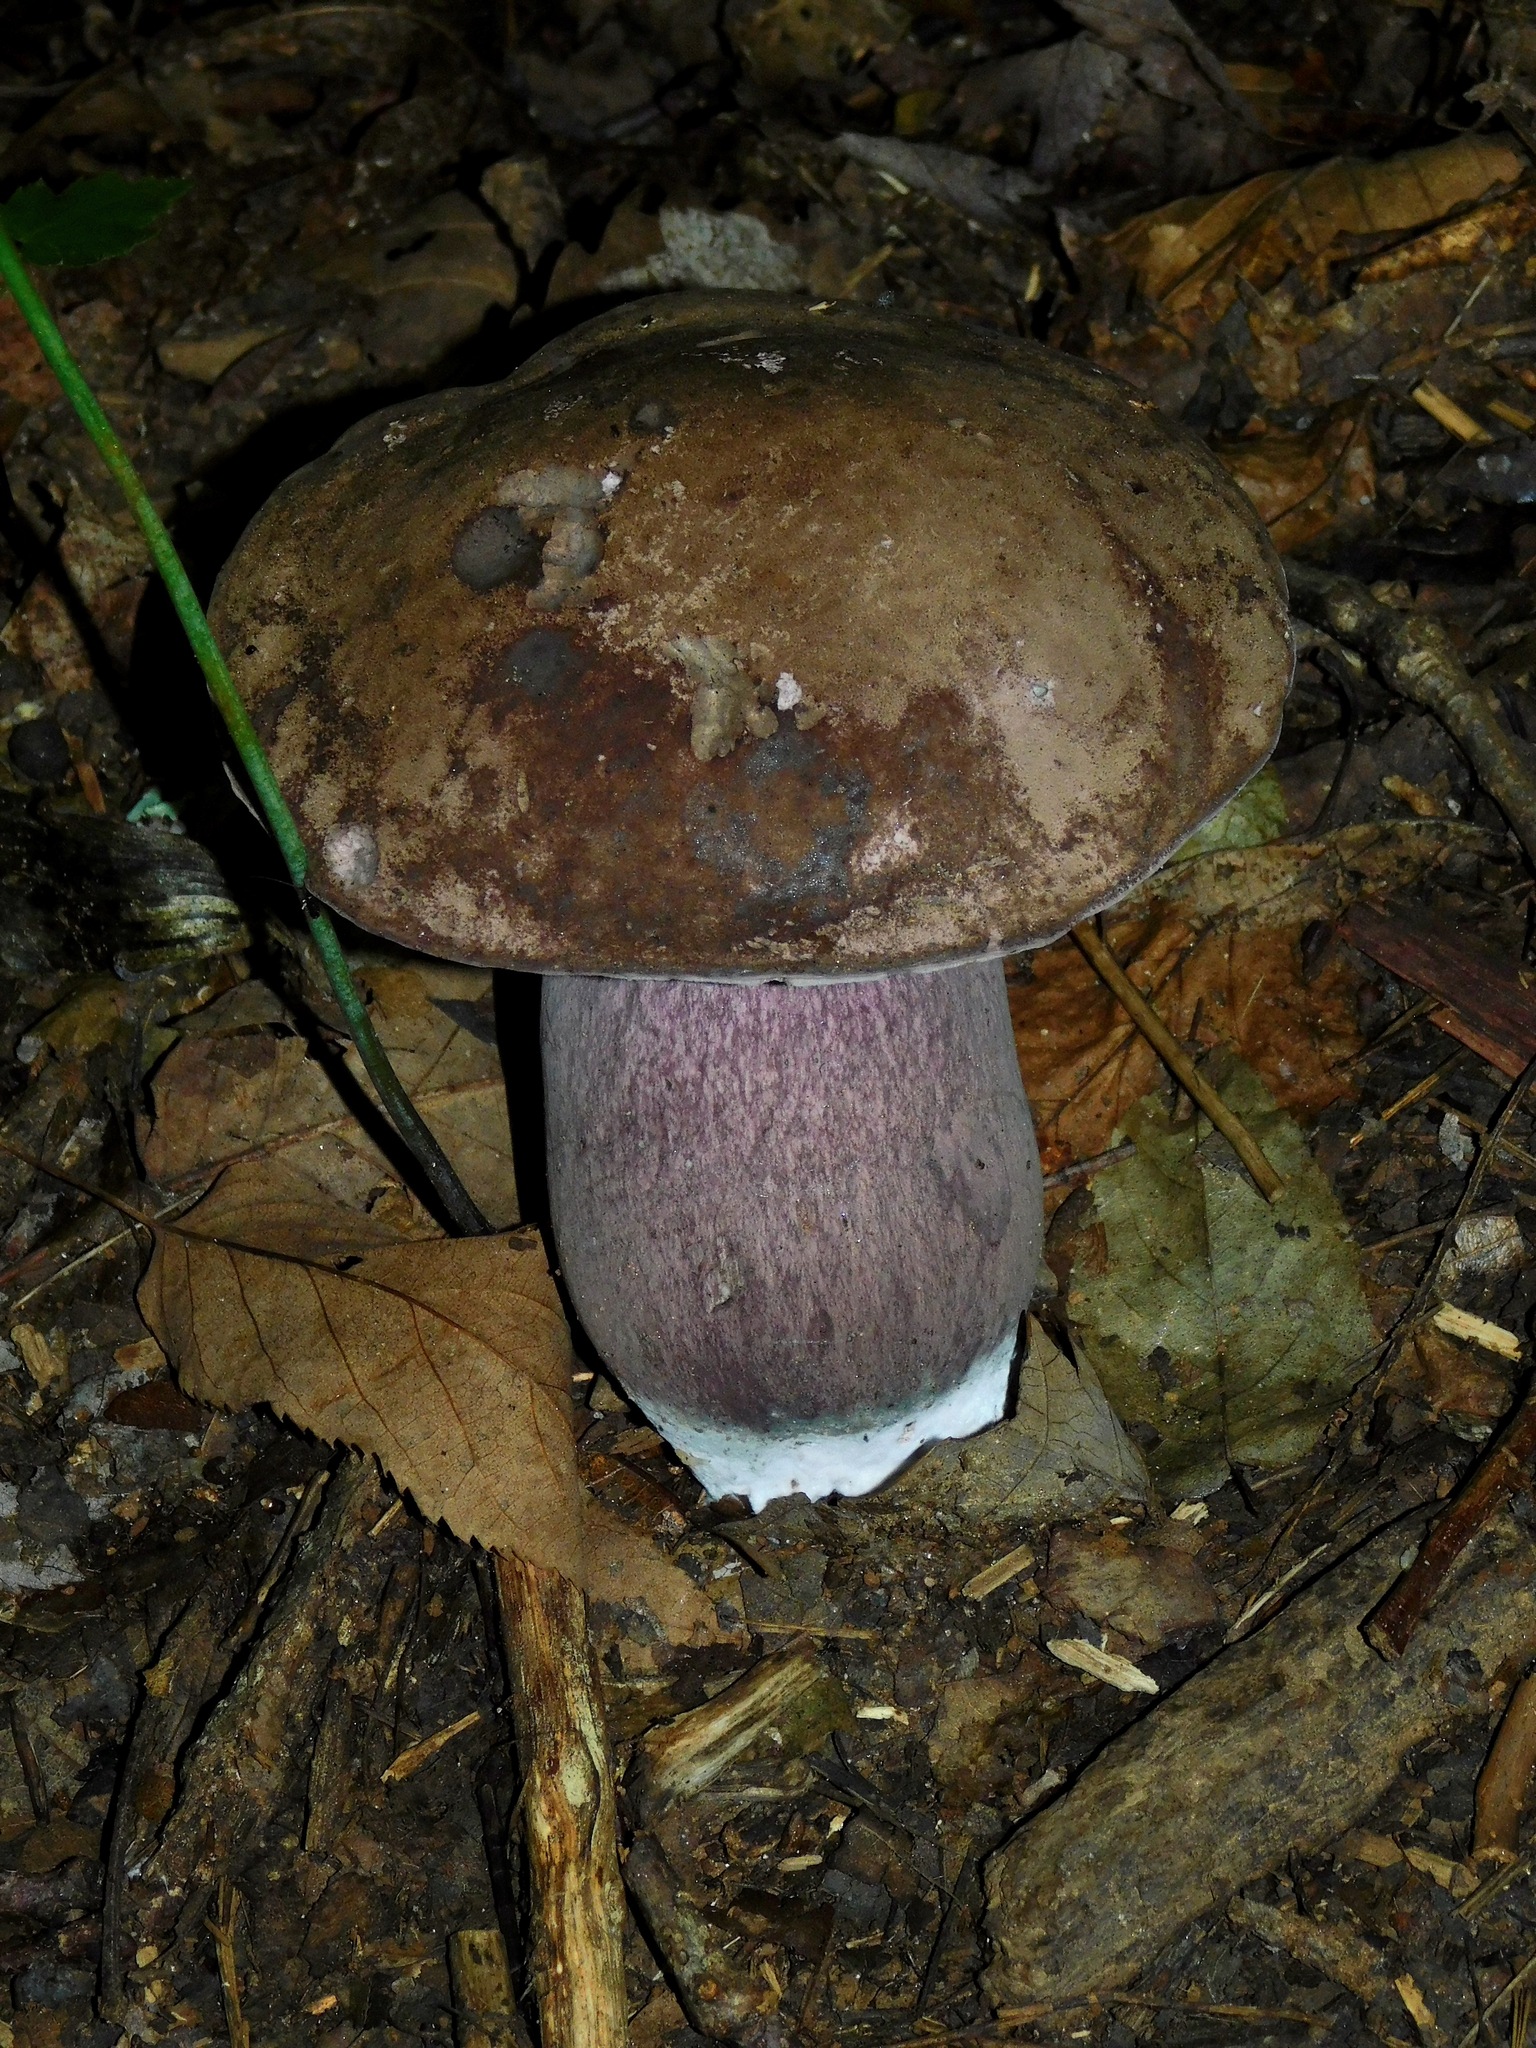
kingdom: Fungi
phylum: Basidiomycota
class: Agaricomycetes
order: Boletales
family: Boletaceae
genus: Tylopilus
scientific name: Tylopilus plumbeoviolaceus
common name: Violet gray bolete
